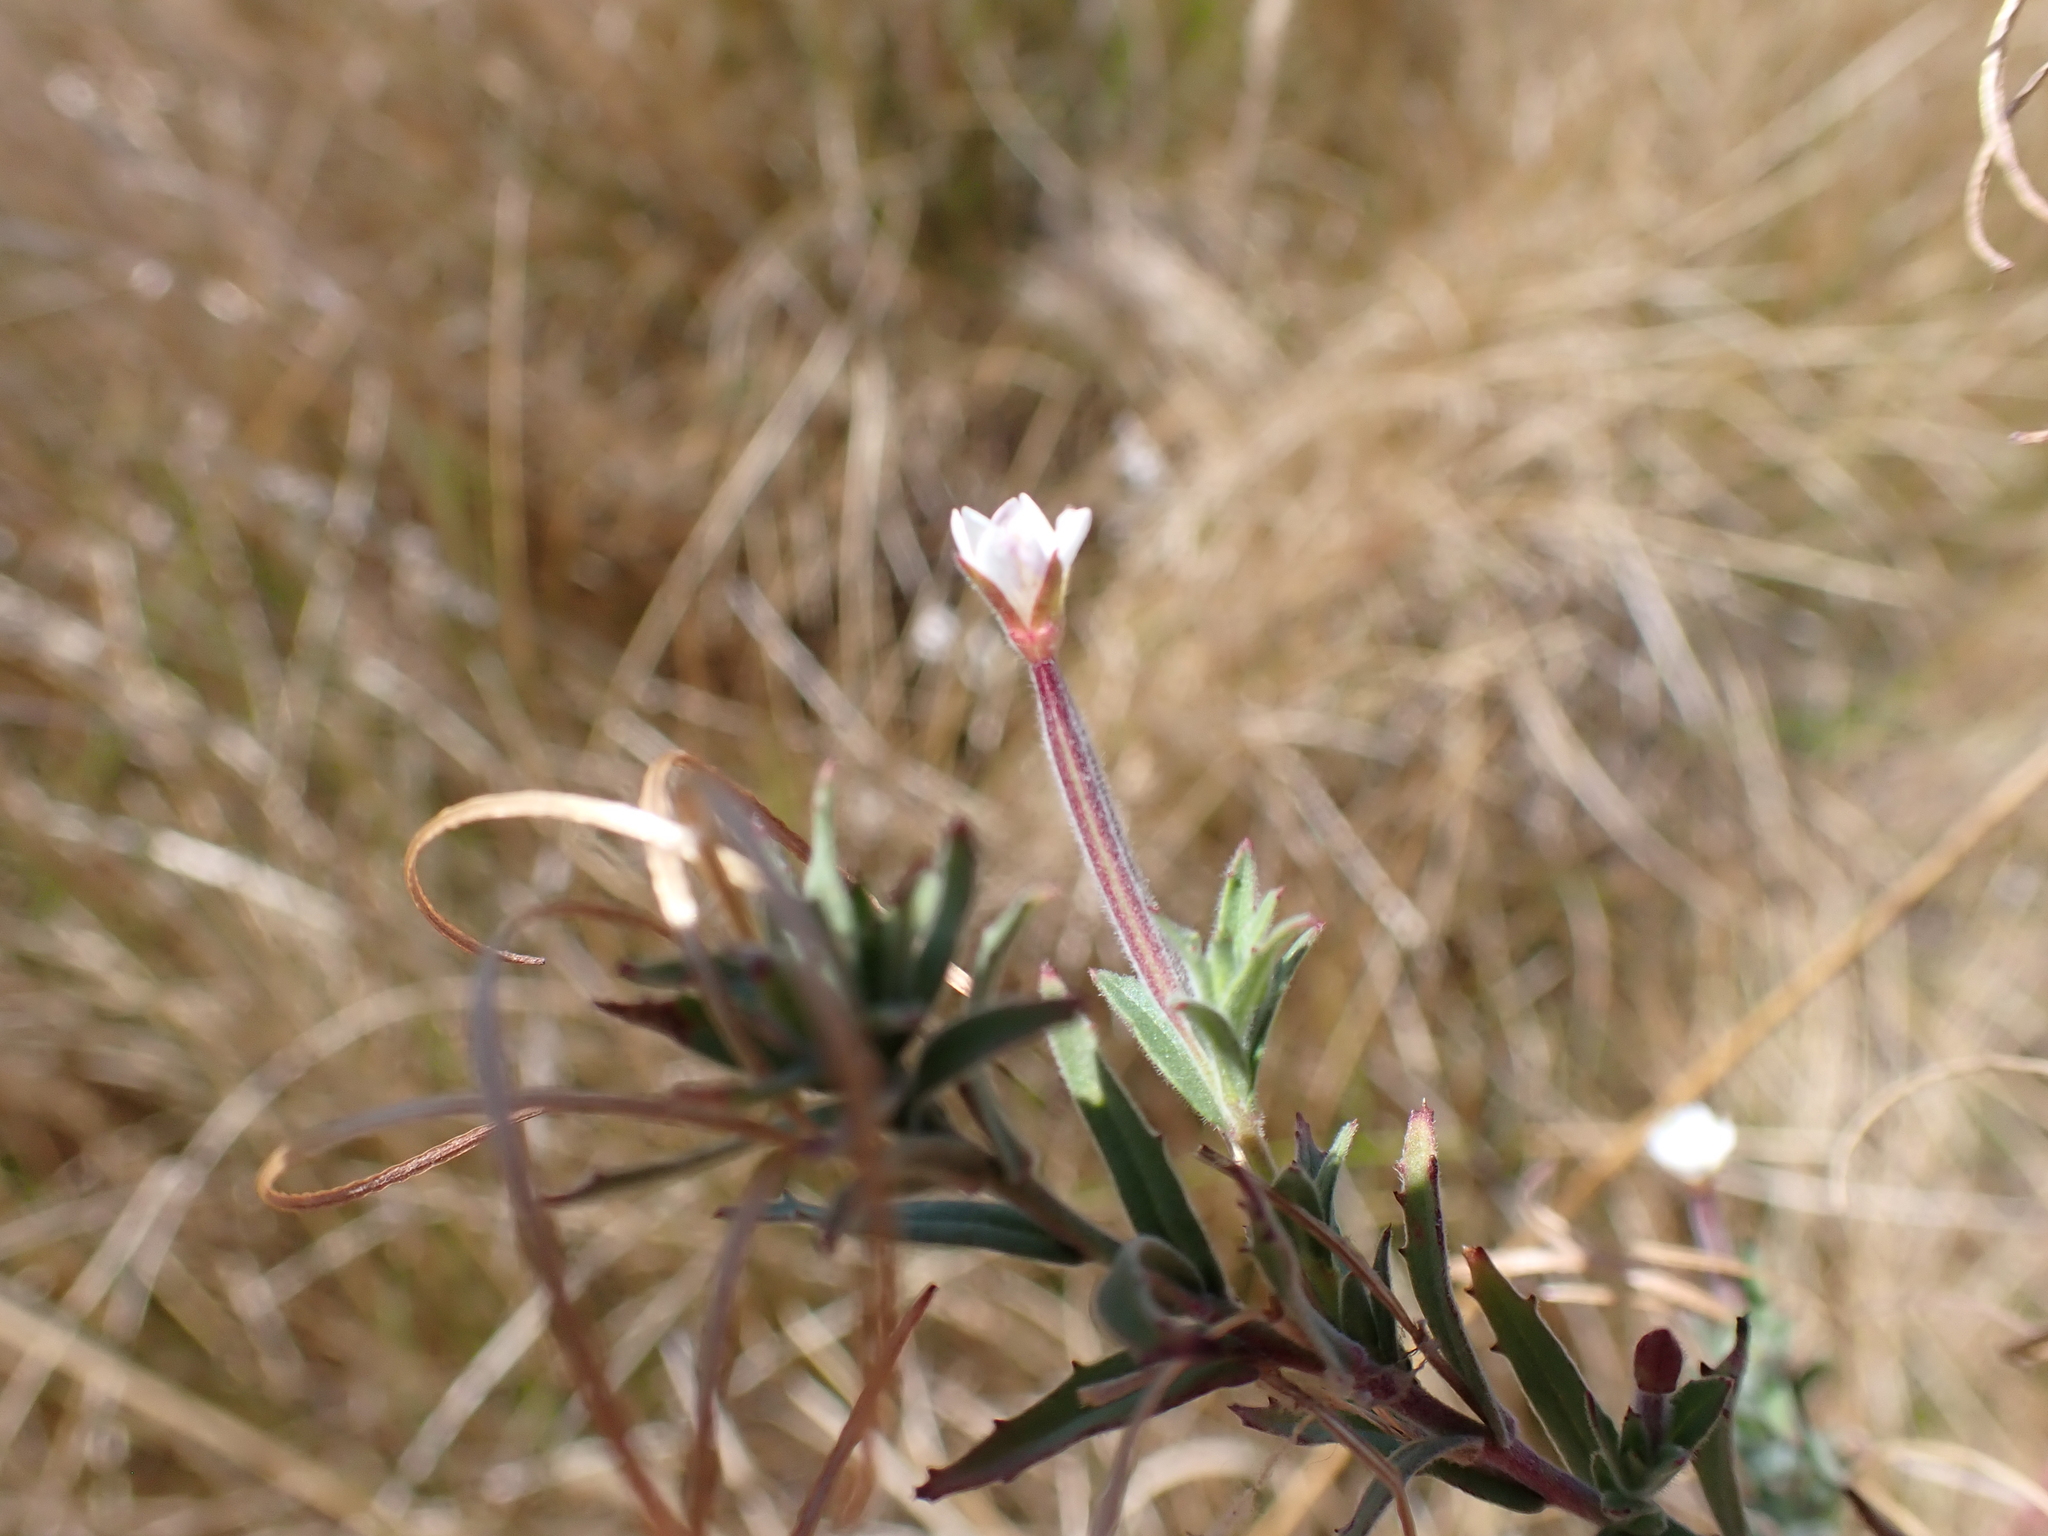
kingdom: Plantae
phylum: Tracheophyta
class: Magnoliopsida
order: Myrtales
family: Onagraceae
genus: Epilobium
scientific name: Epilobium hirtigerum
